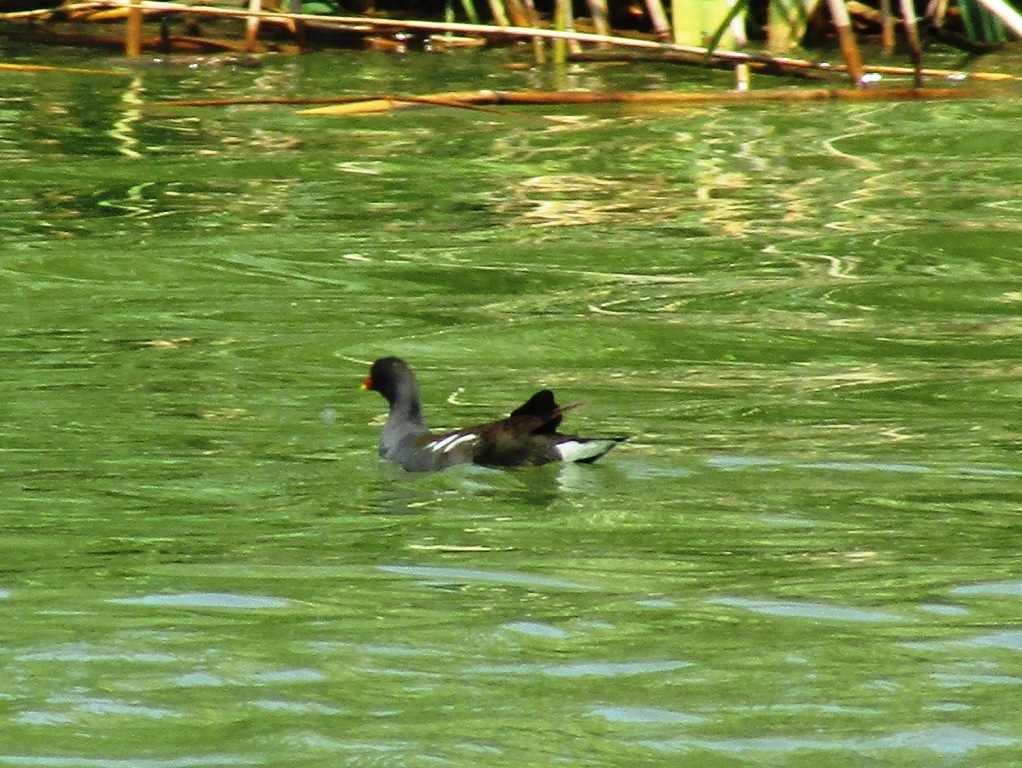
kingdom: Animalia
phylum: Chordata
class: Aves
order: Gruiformes
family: Rallidae
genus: Gallinula
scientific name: Gallinula chloropus
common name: Common moorhen
